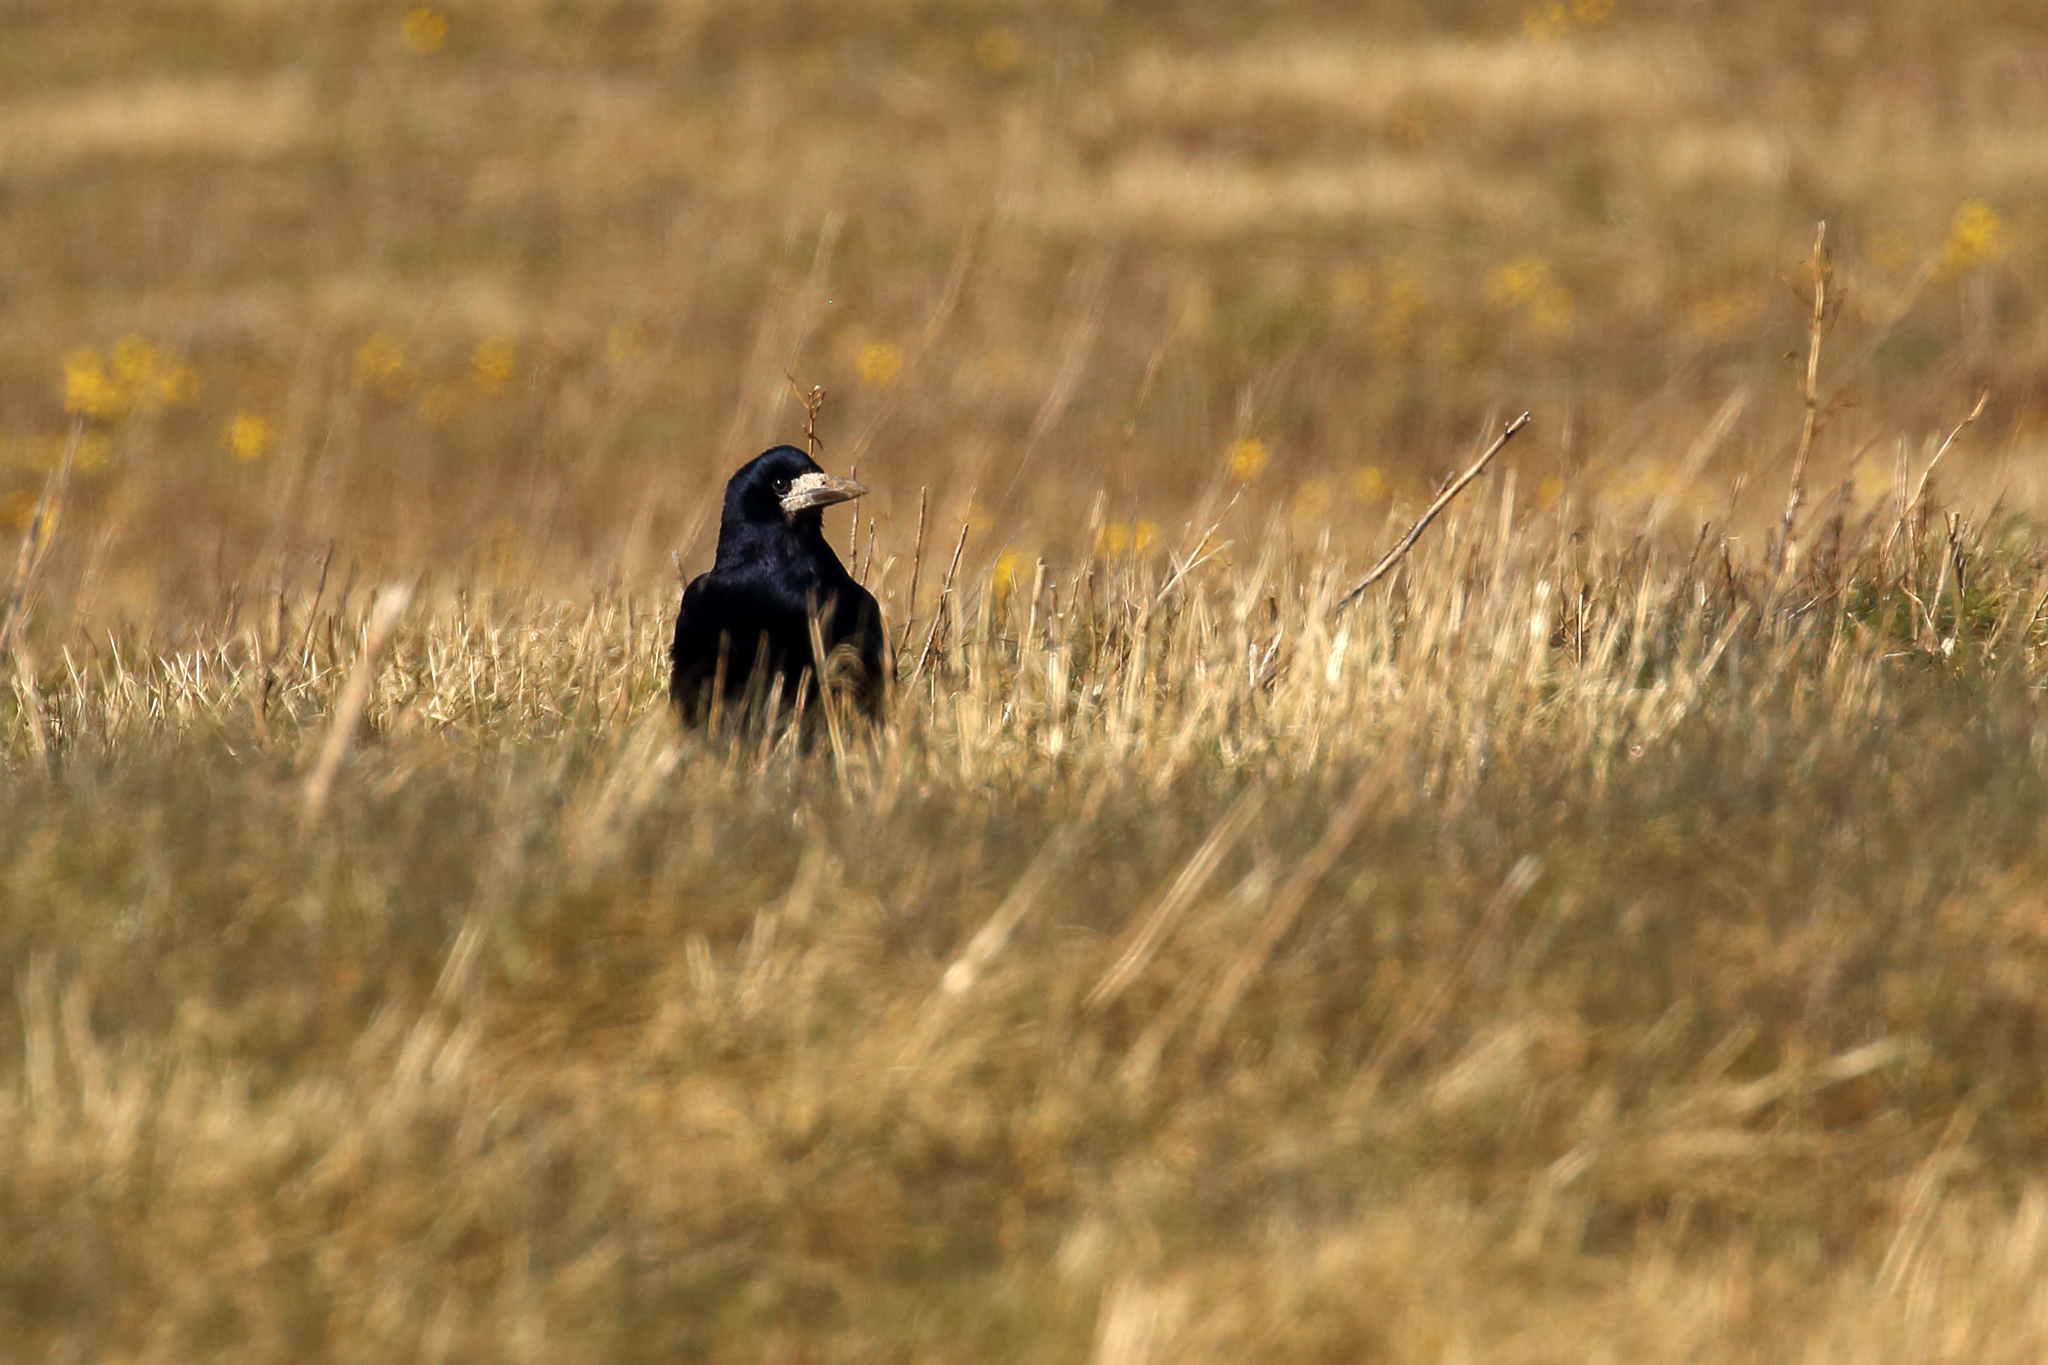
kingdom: Animalia
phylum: Chordata
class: Aves
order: Passeriformes
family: Corvidae
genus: Corvus
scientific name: Corvus frugilegus
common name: Rook
